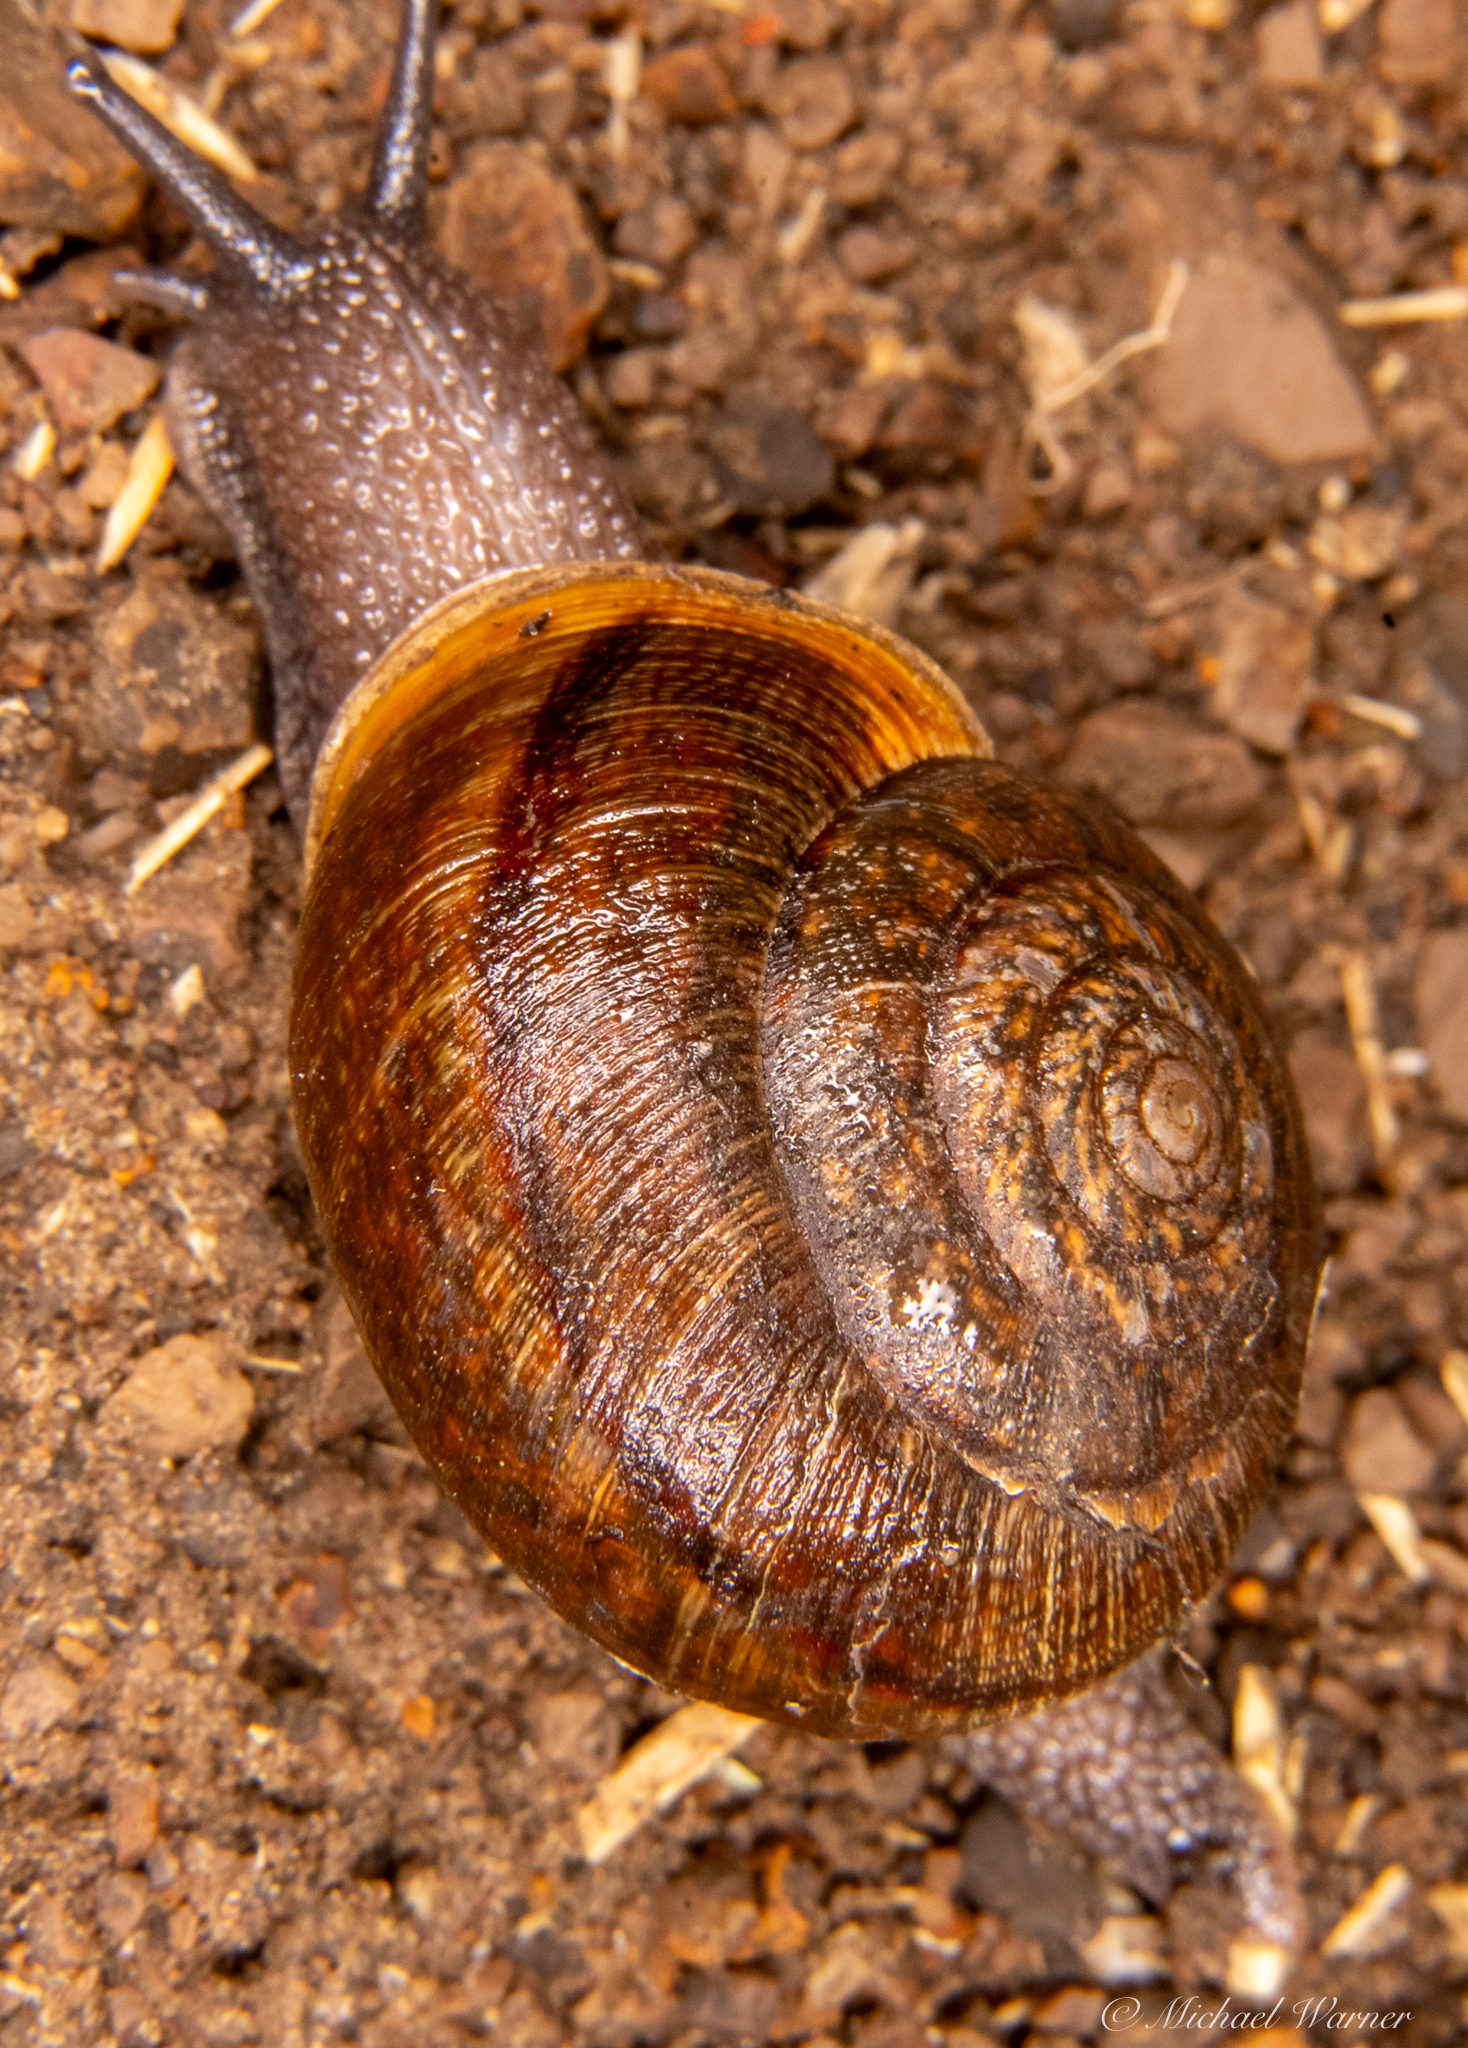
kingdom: Animalia
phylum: Mollusca
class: Gastropoda
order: Stylommatophora
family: Xanthonychidae
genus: Helminthoglypta
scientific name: Helminthoglypta contracostae
